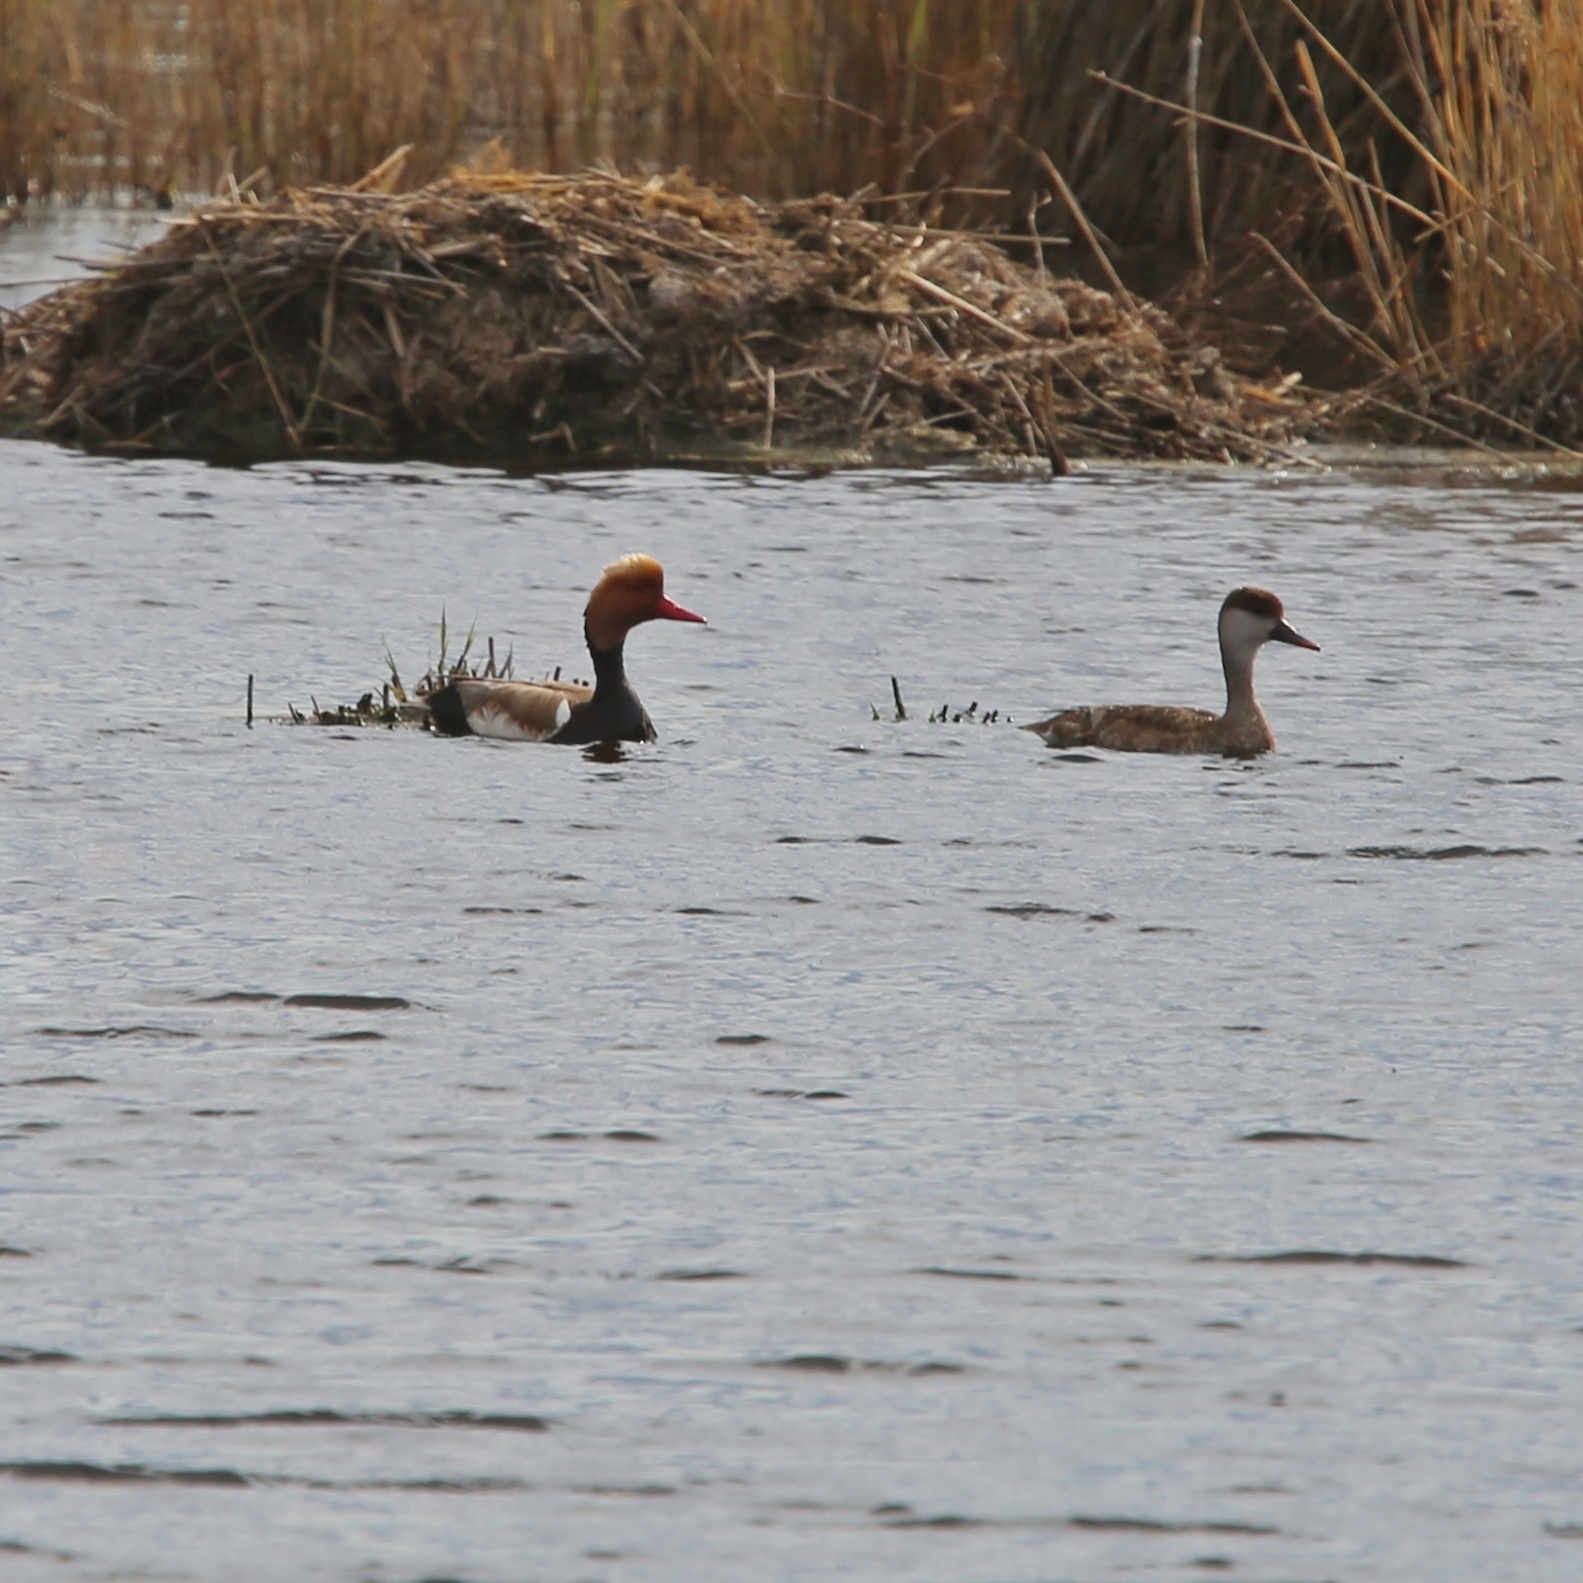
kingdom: Animalia
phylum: Chordata
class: Aves
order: Anseriformes
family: Anatidae
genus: Netta
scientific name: Netta rufina
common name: Red-crested pochard
